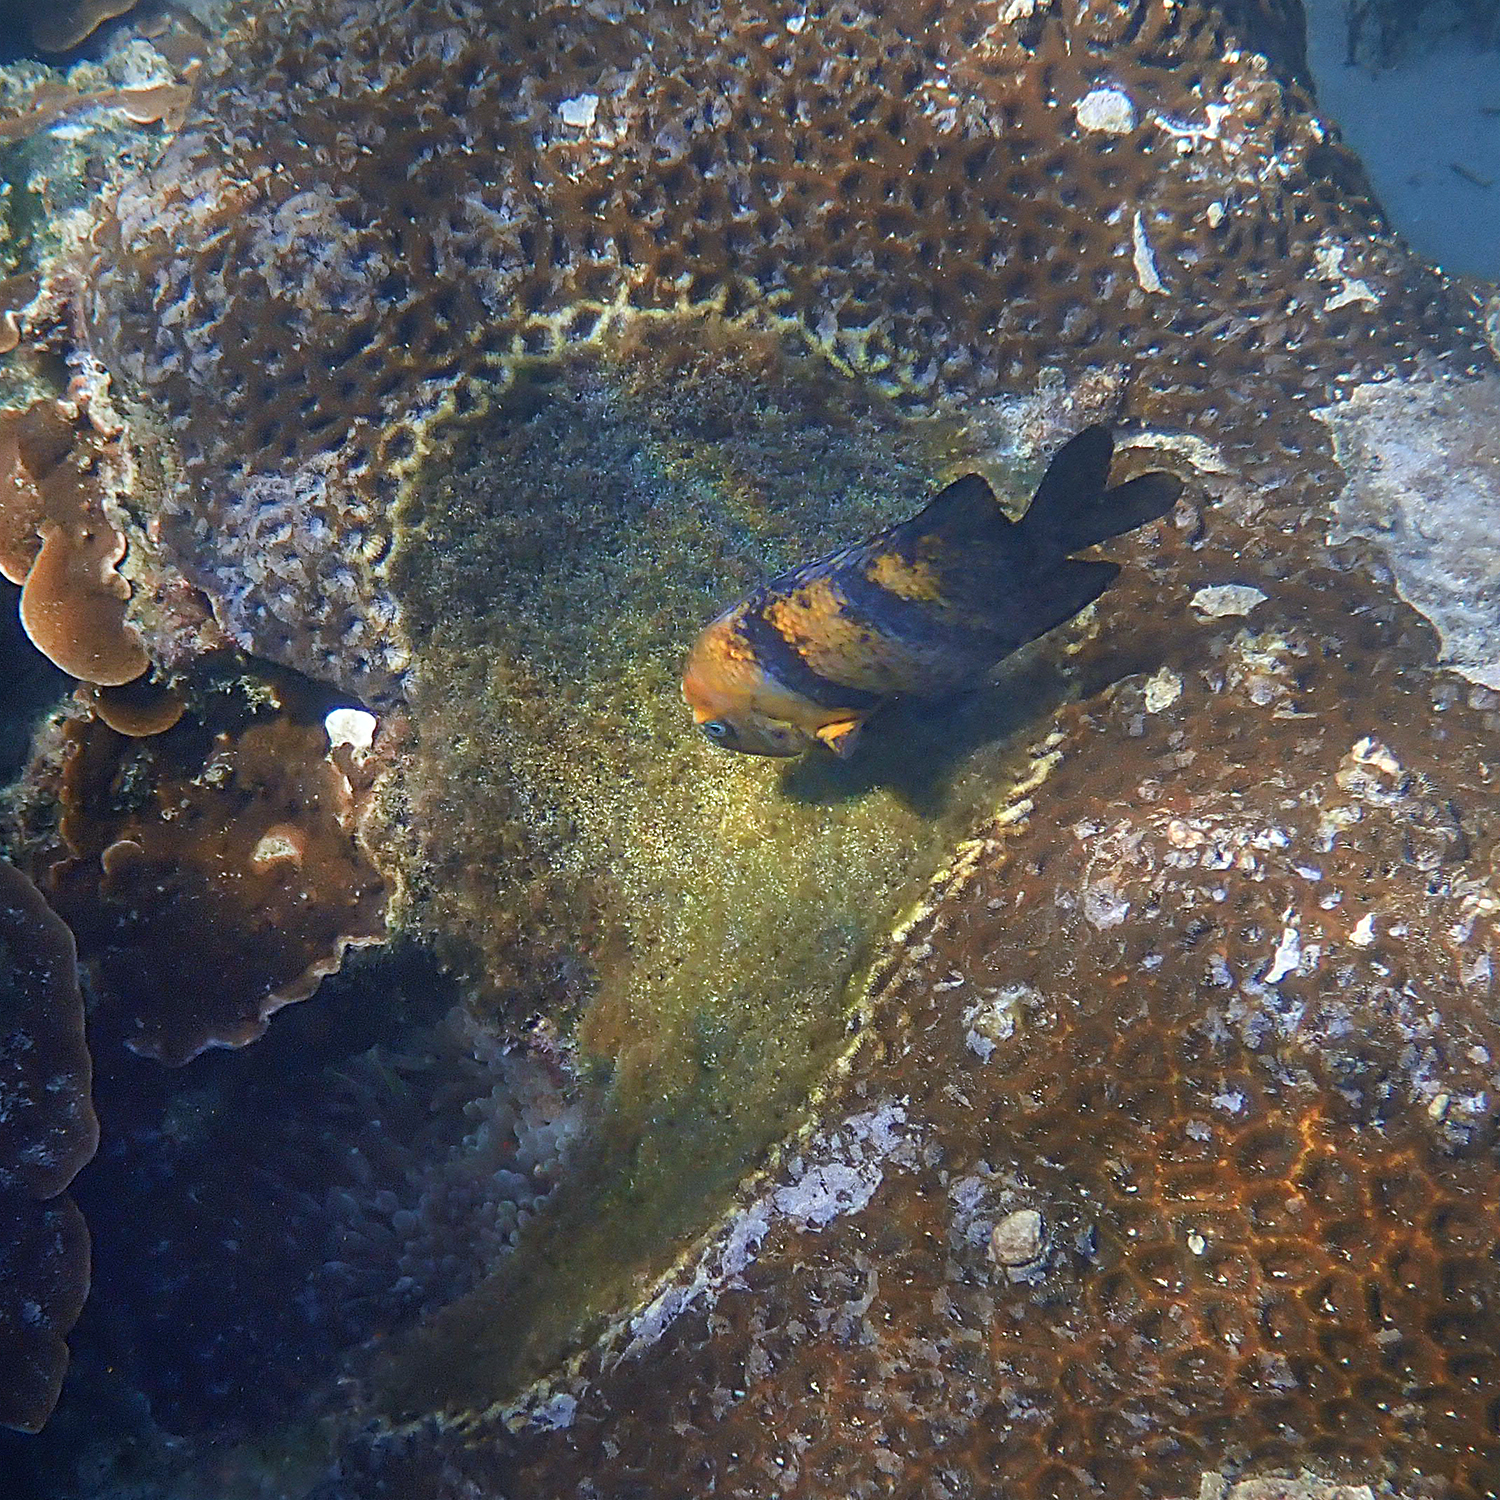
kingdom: Animalia
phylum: Chordata
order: Perciformes
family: Pomacentridae
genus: Parma
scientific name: Parma polylepis
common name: Banded parma
